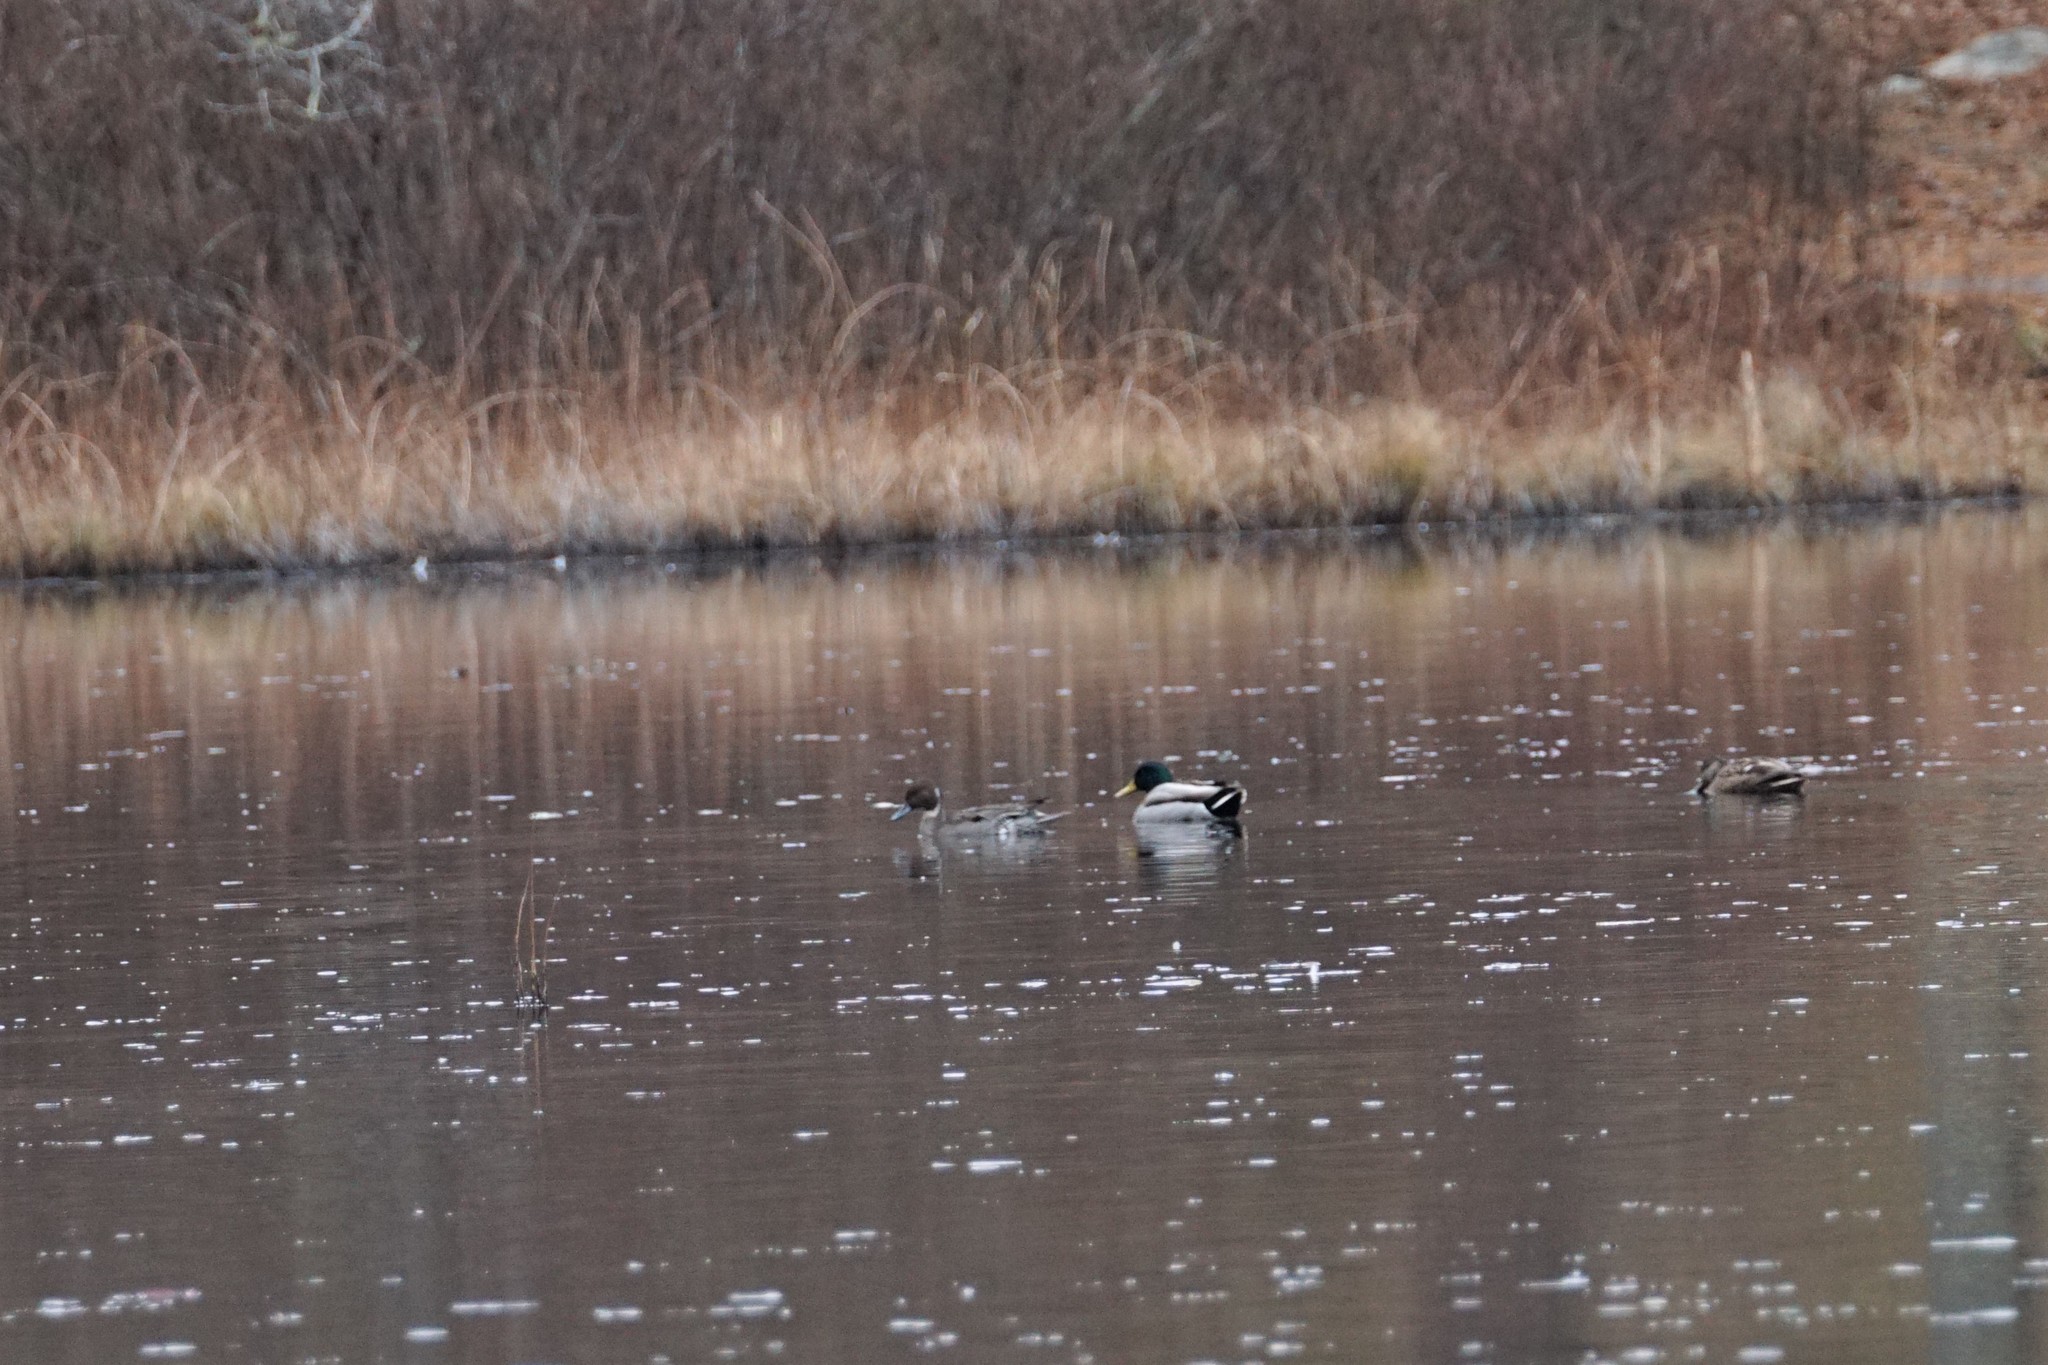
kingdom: Animalia
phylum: Chordata
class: Aves
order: Anseriformes
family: Anatidae
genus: Anas
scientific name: Anas acuta
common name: Northern pintail
